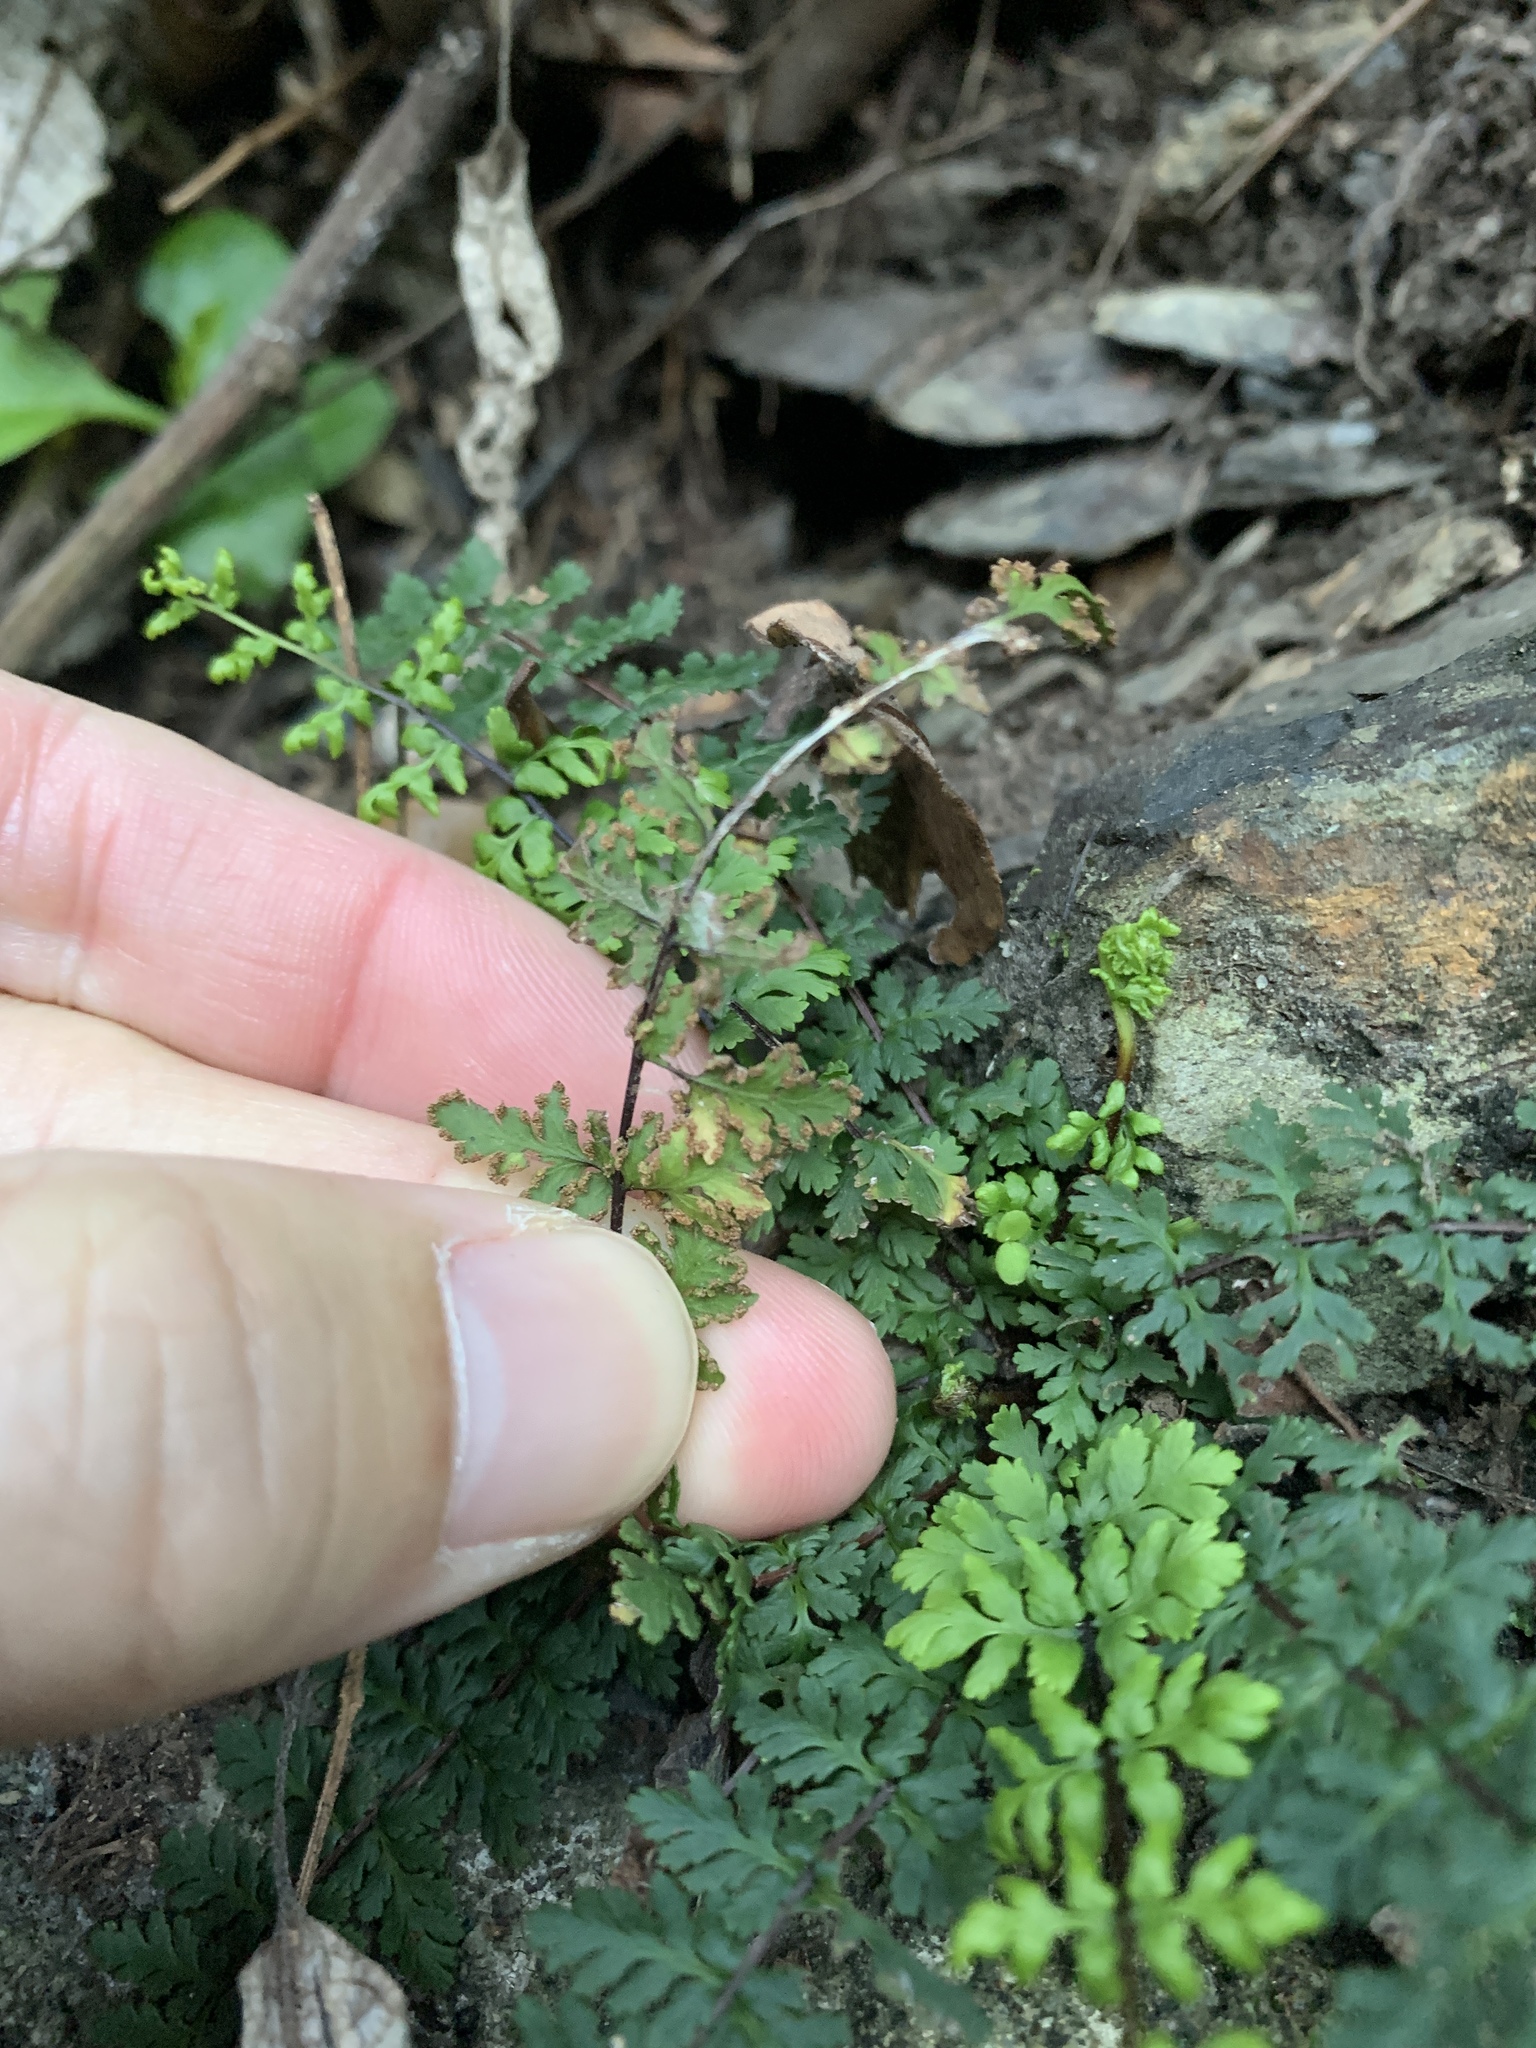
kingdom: Plantae
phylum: Tracheophyta
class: Polypodiopsida
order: Polypodiales
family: Pteridaceae
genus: Oeosporangium
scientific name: Oeosporangium chusanum
